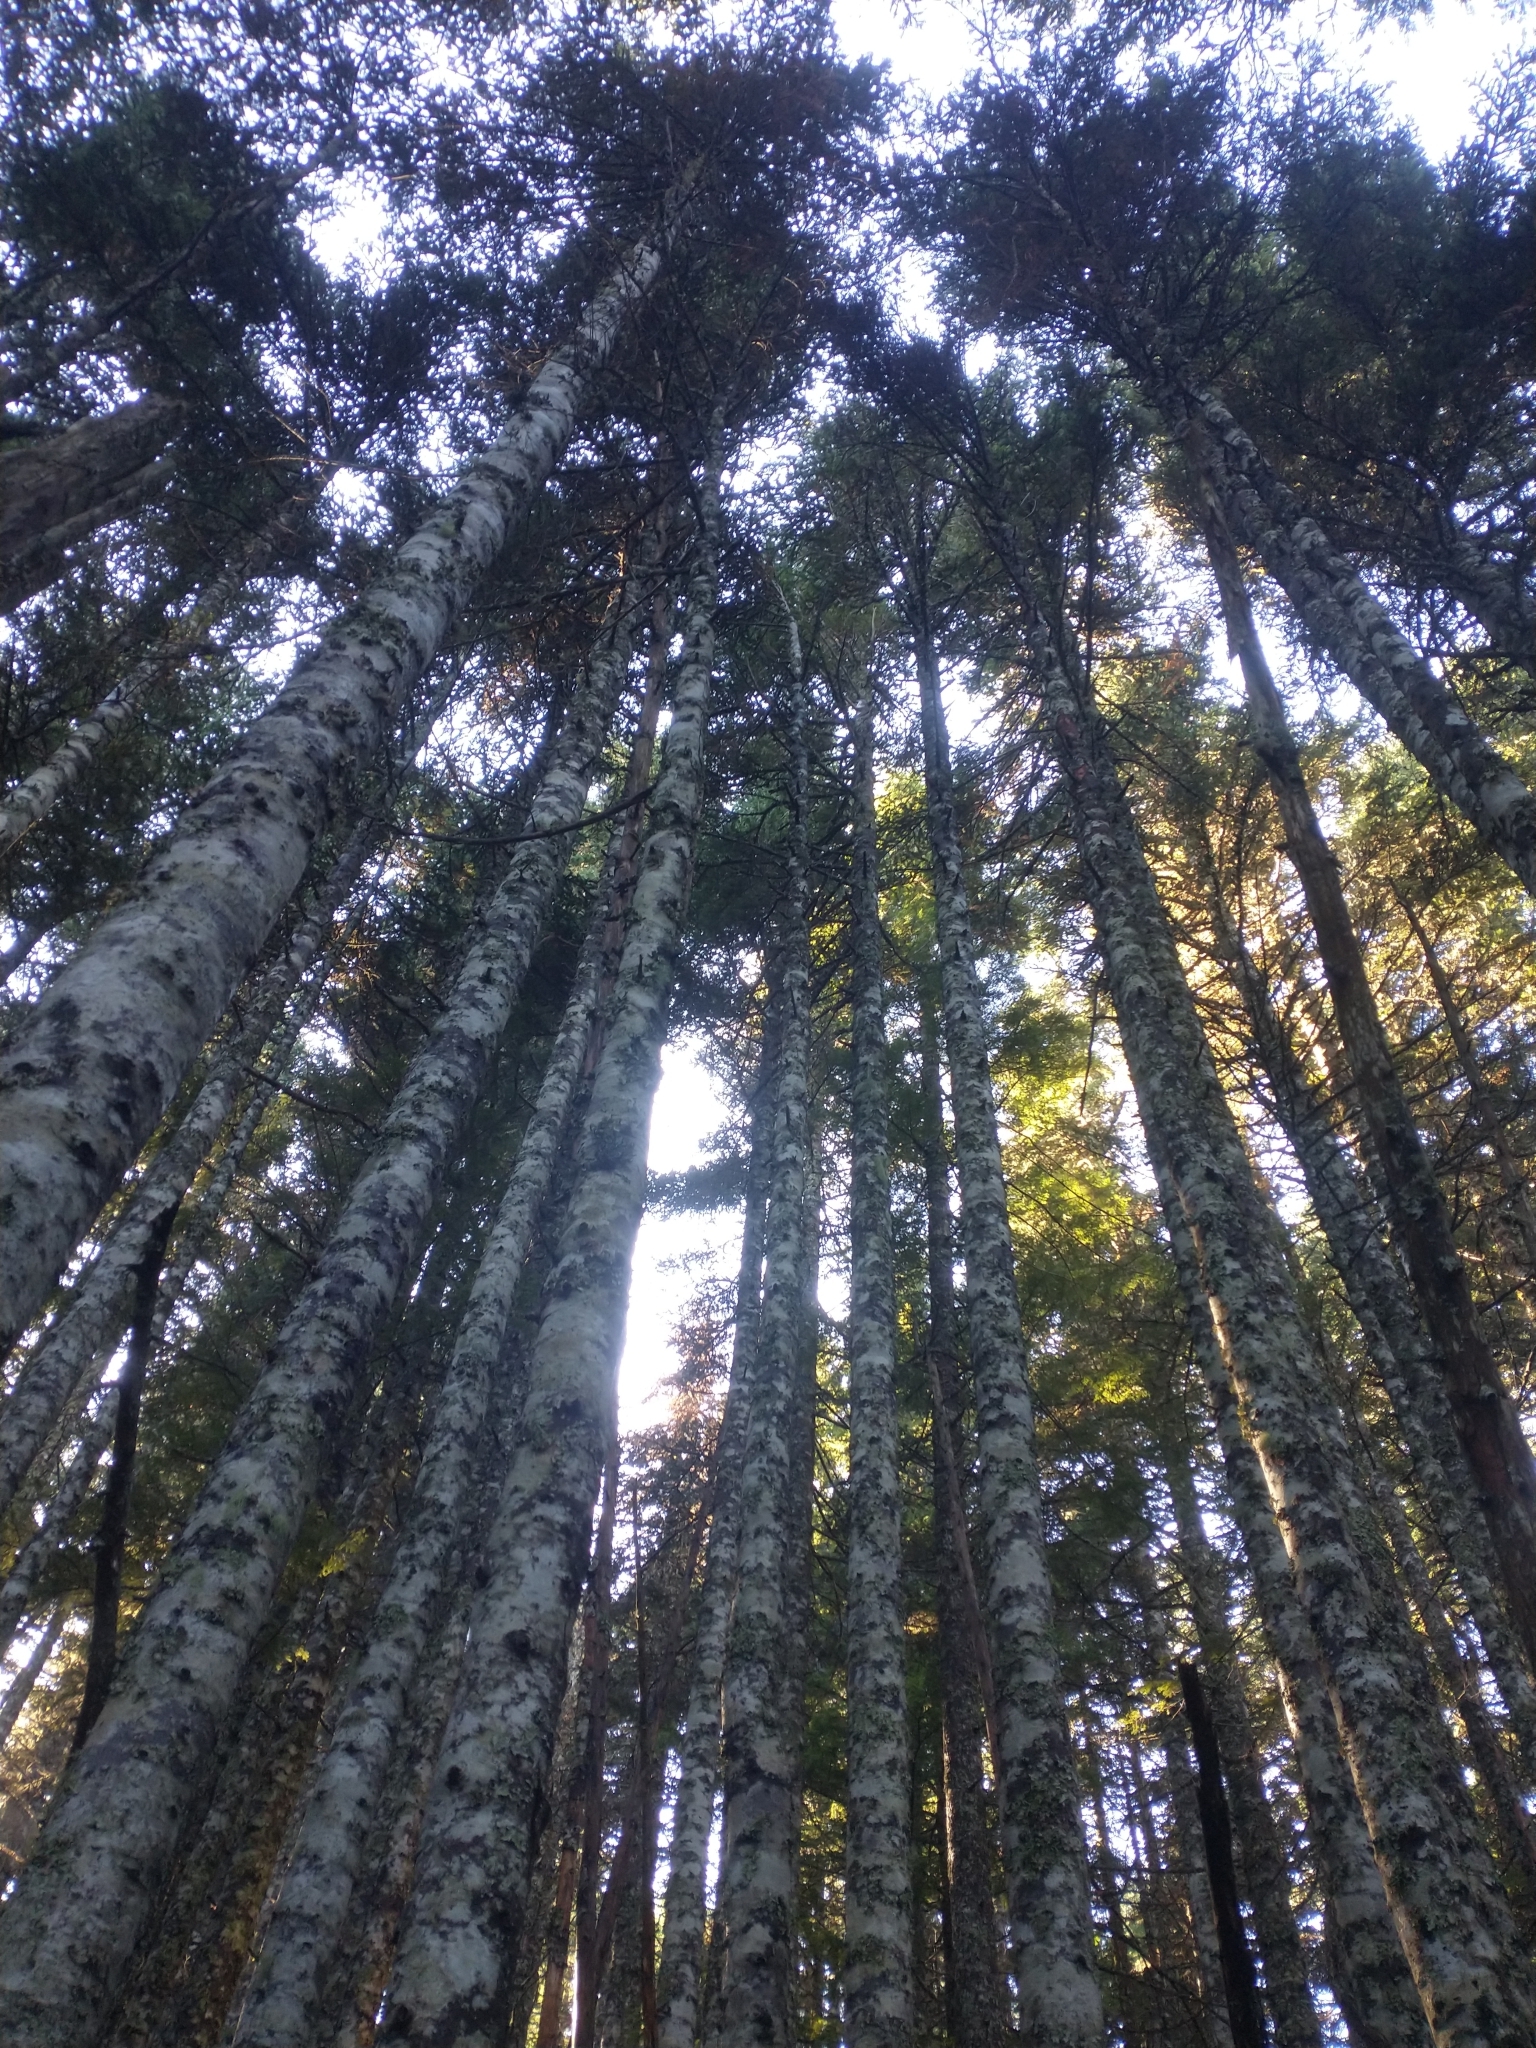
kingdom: Plantae
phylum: Tracheophyta
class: Pinopsida
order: Pinales
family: Pinaceae
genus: Abies
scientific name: Abies amabilis
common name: Pacific silver fir
